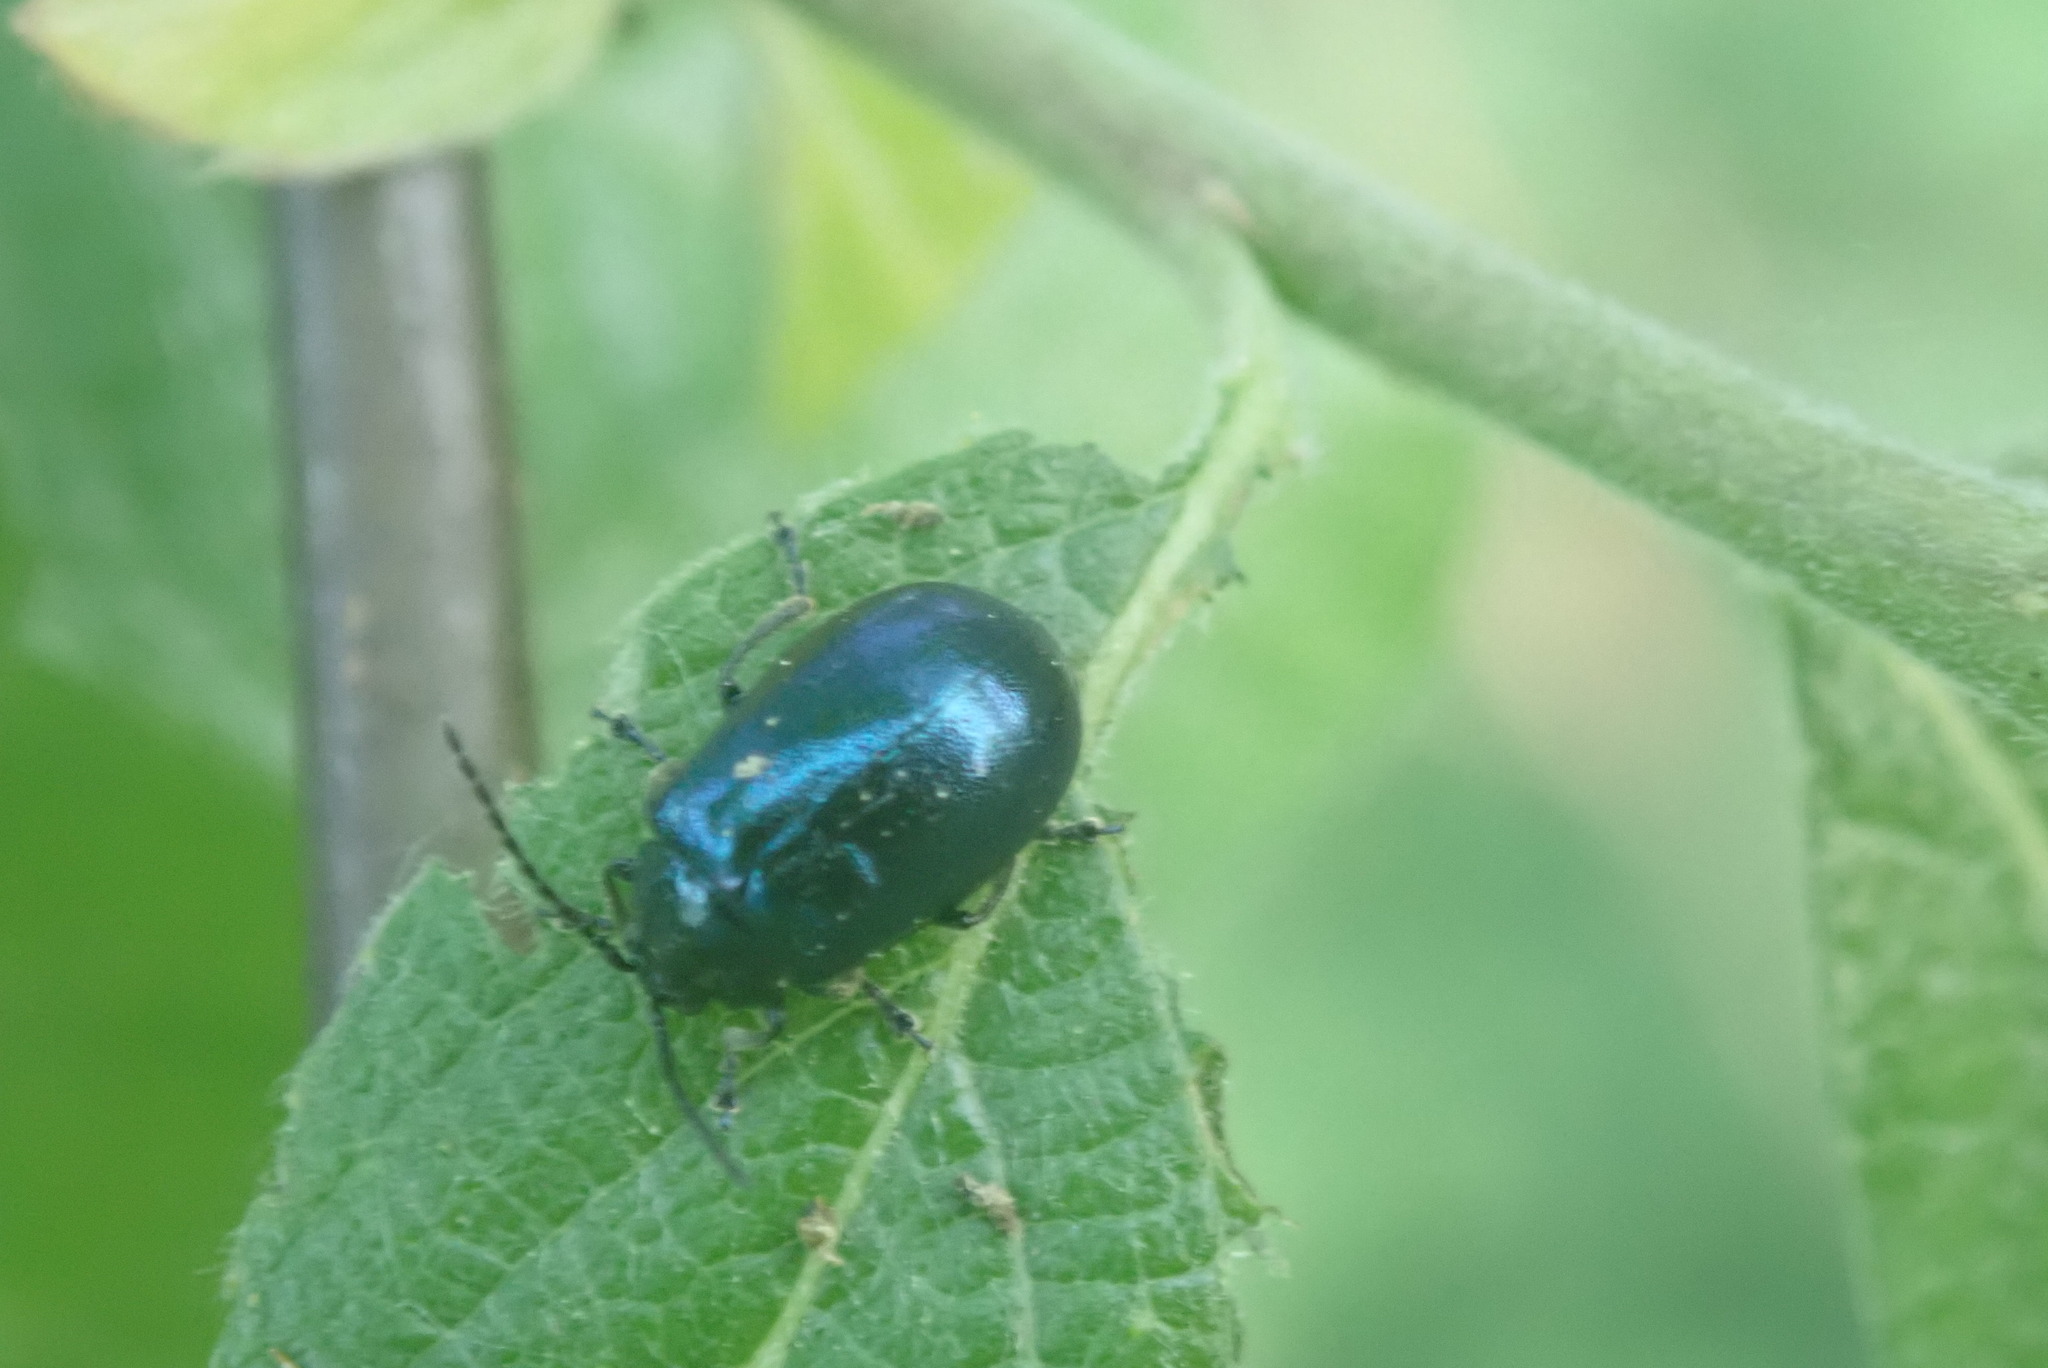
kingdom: Animalia
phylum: Arthropoda
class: Insecta
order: Coleoptera
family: Chrysomelidae
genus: Agelastica
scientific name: Agelastica alni
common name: Alder leaf beetle
